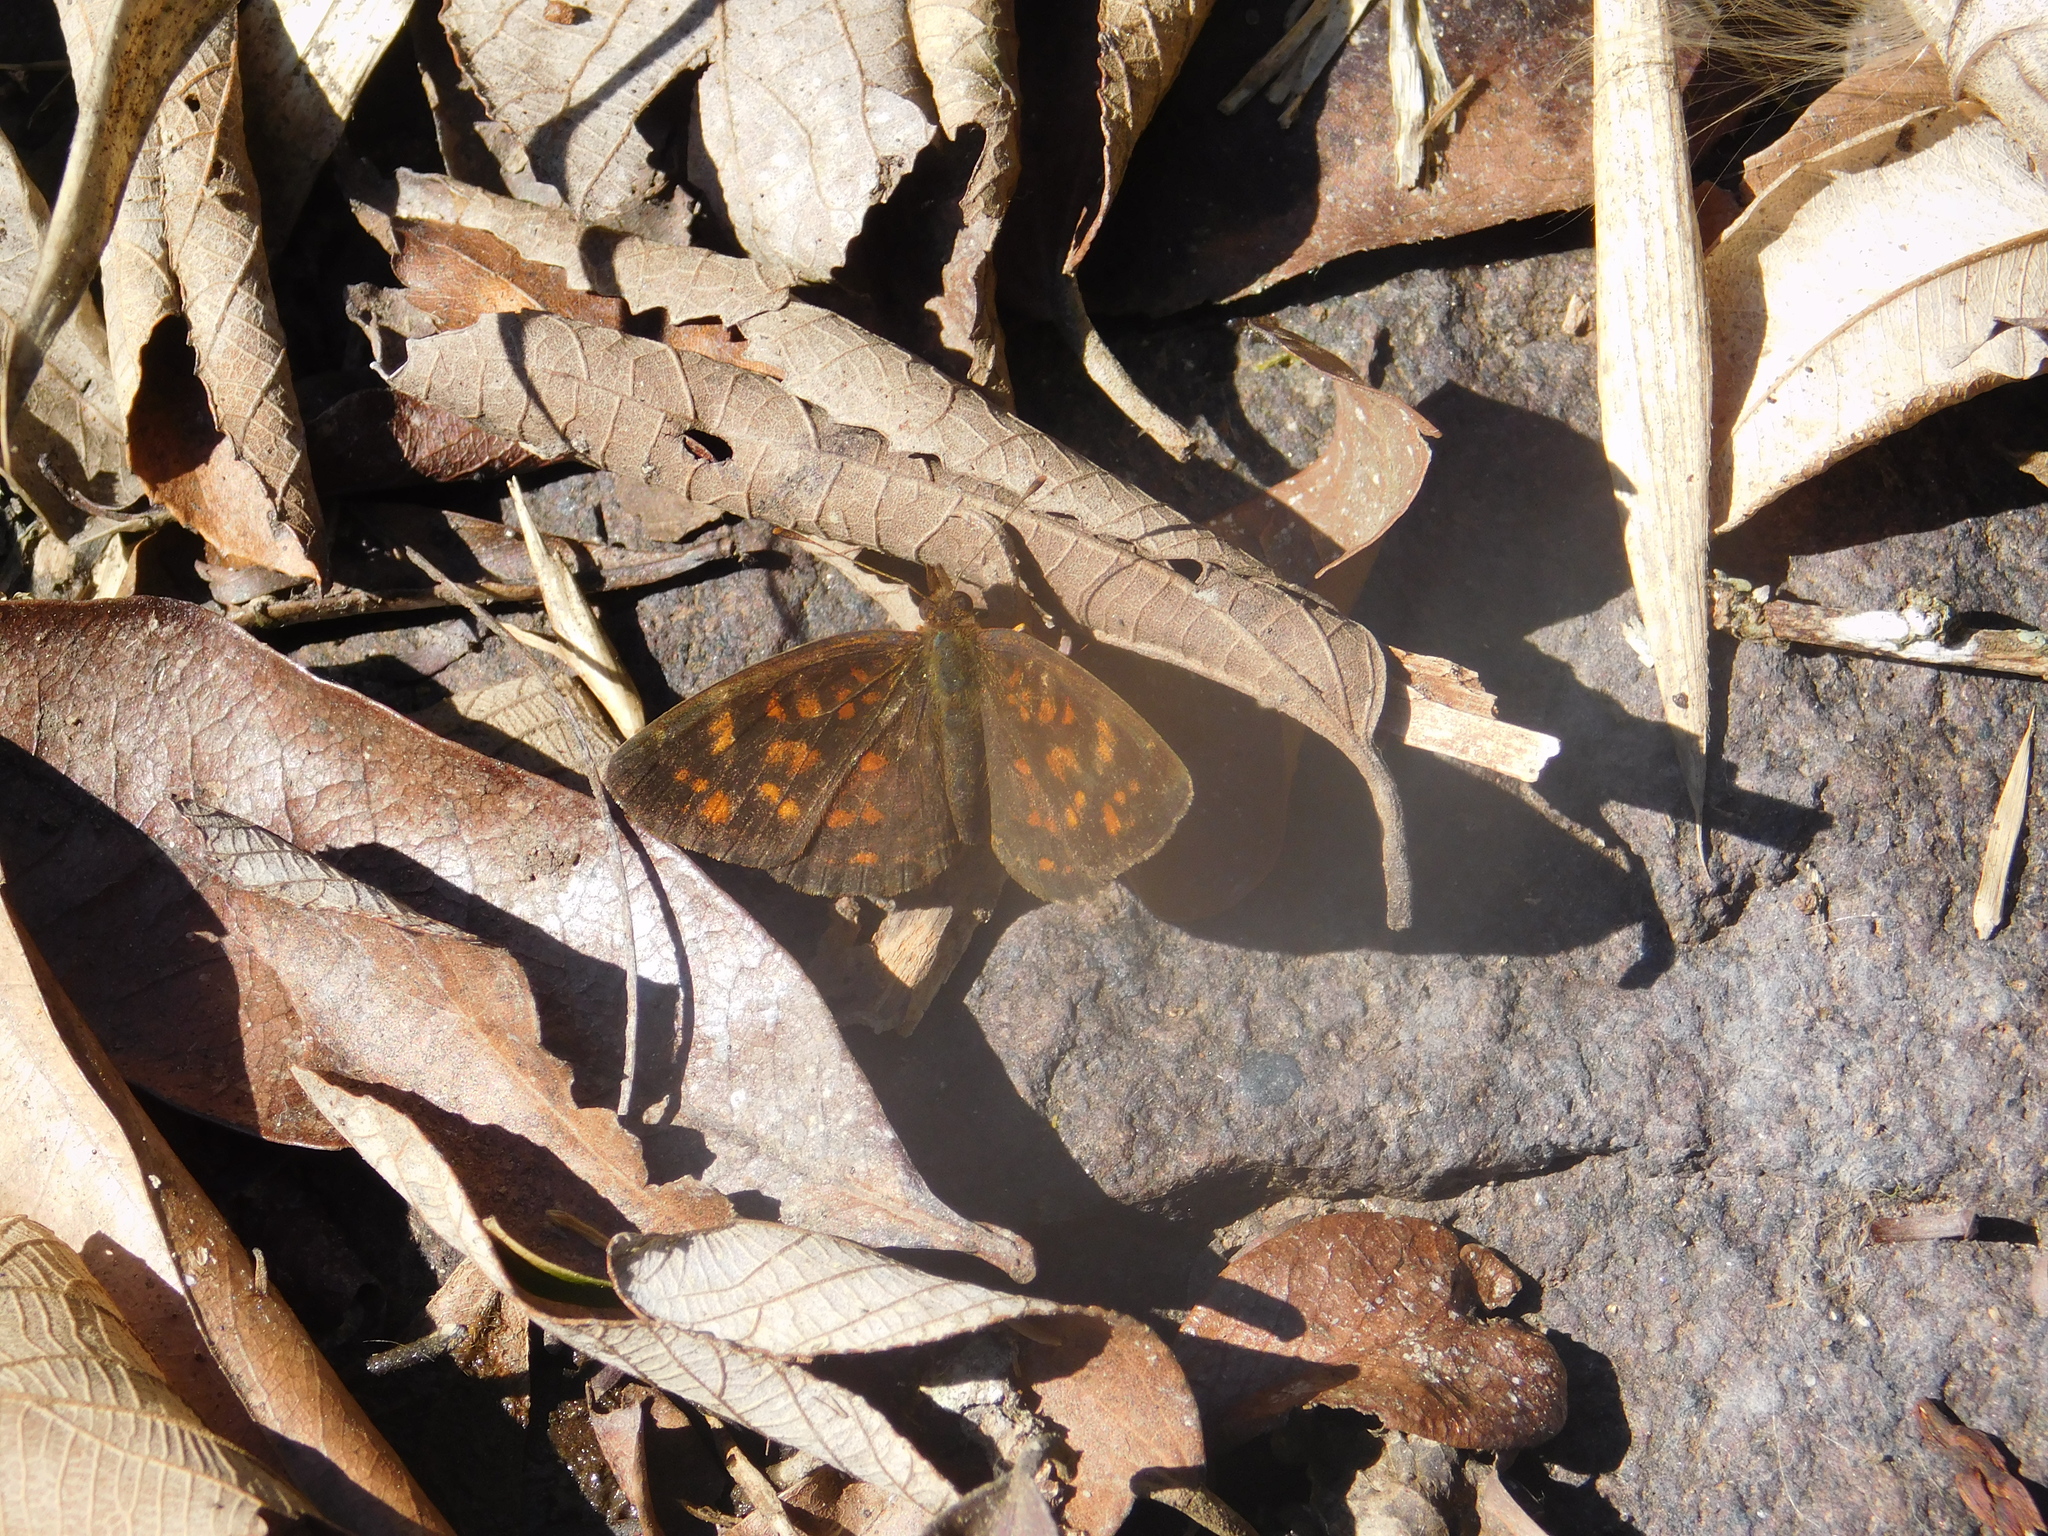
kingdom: Animalia
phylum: Arthropoda
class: Insecta
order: Lepidoptera
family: Nymphalidae
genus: Ortilia
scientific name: Ortilia velica
